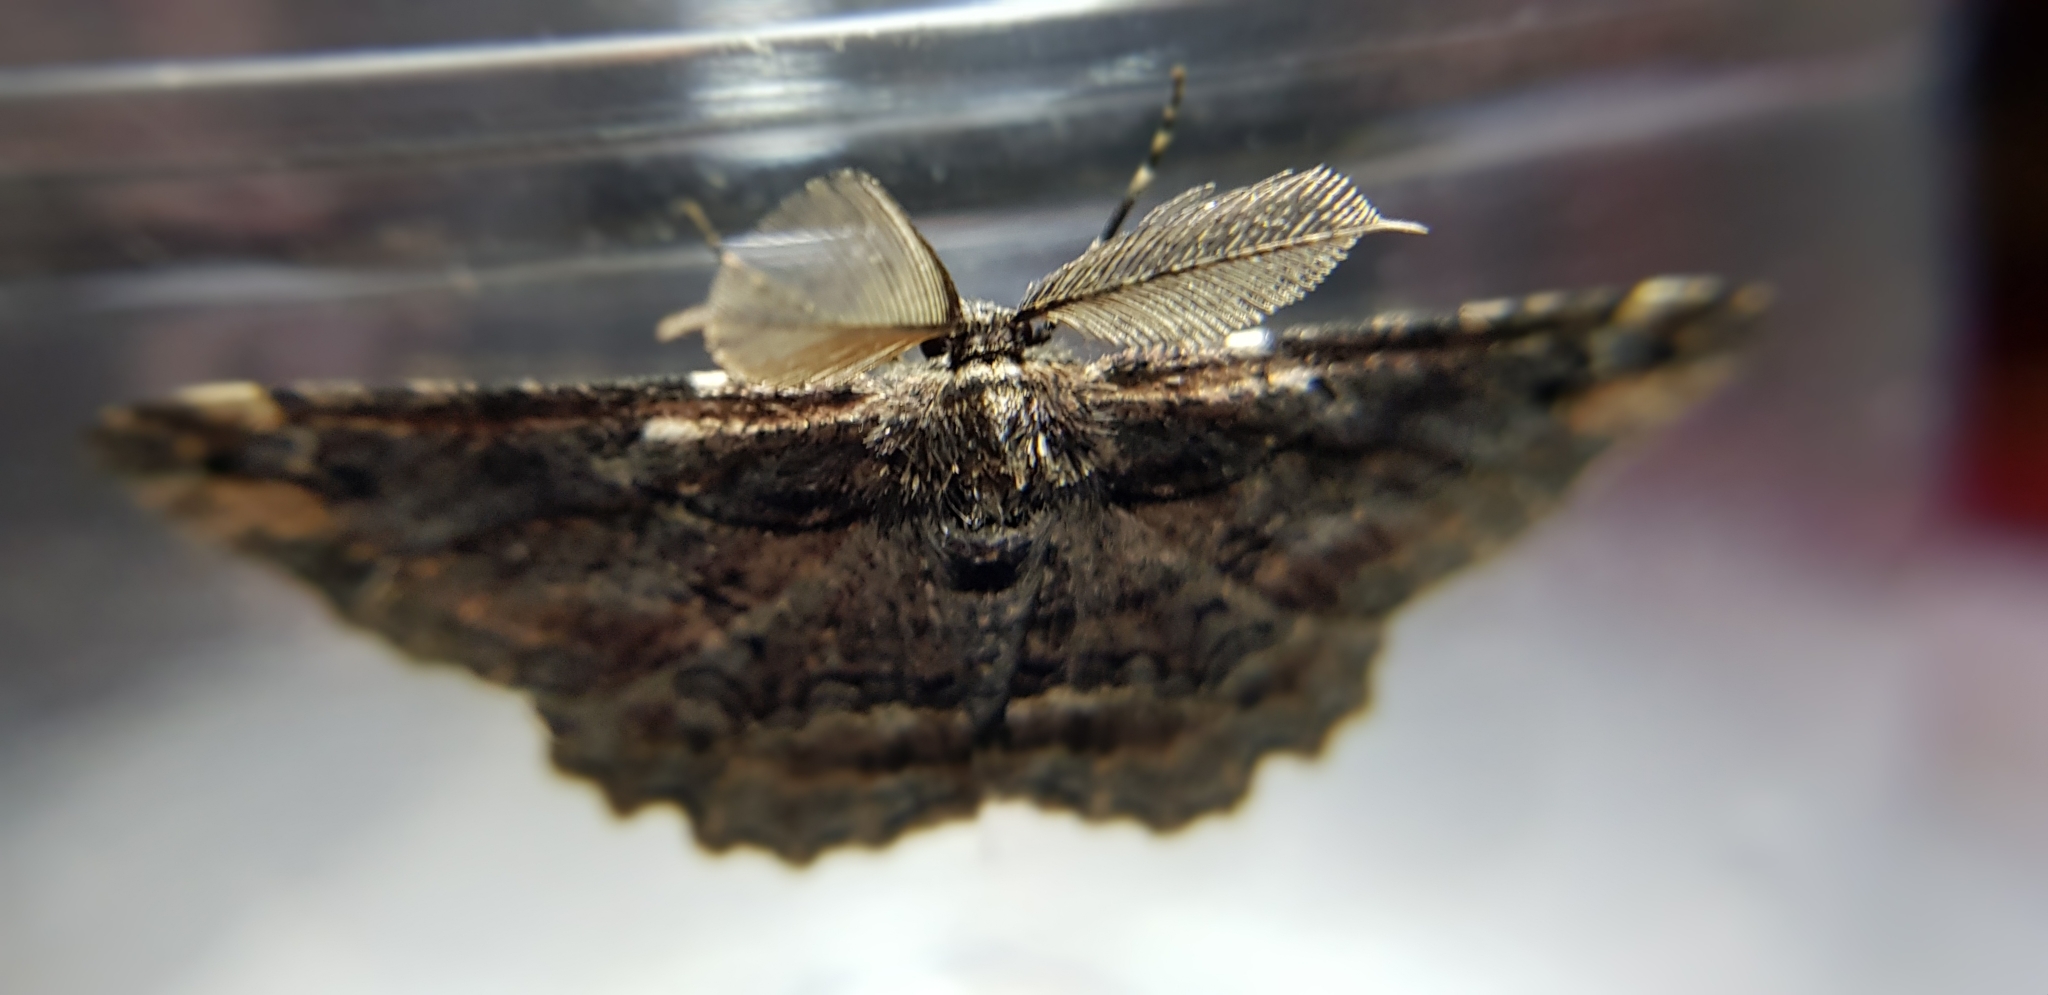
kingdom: Animalia
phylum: Arthropoda
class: Insecta
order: Lepidoptera
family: Geometridae
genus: Pholodes
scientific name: Pholodes sinistraria
